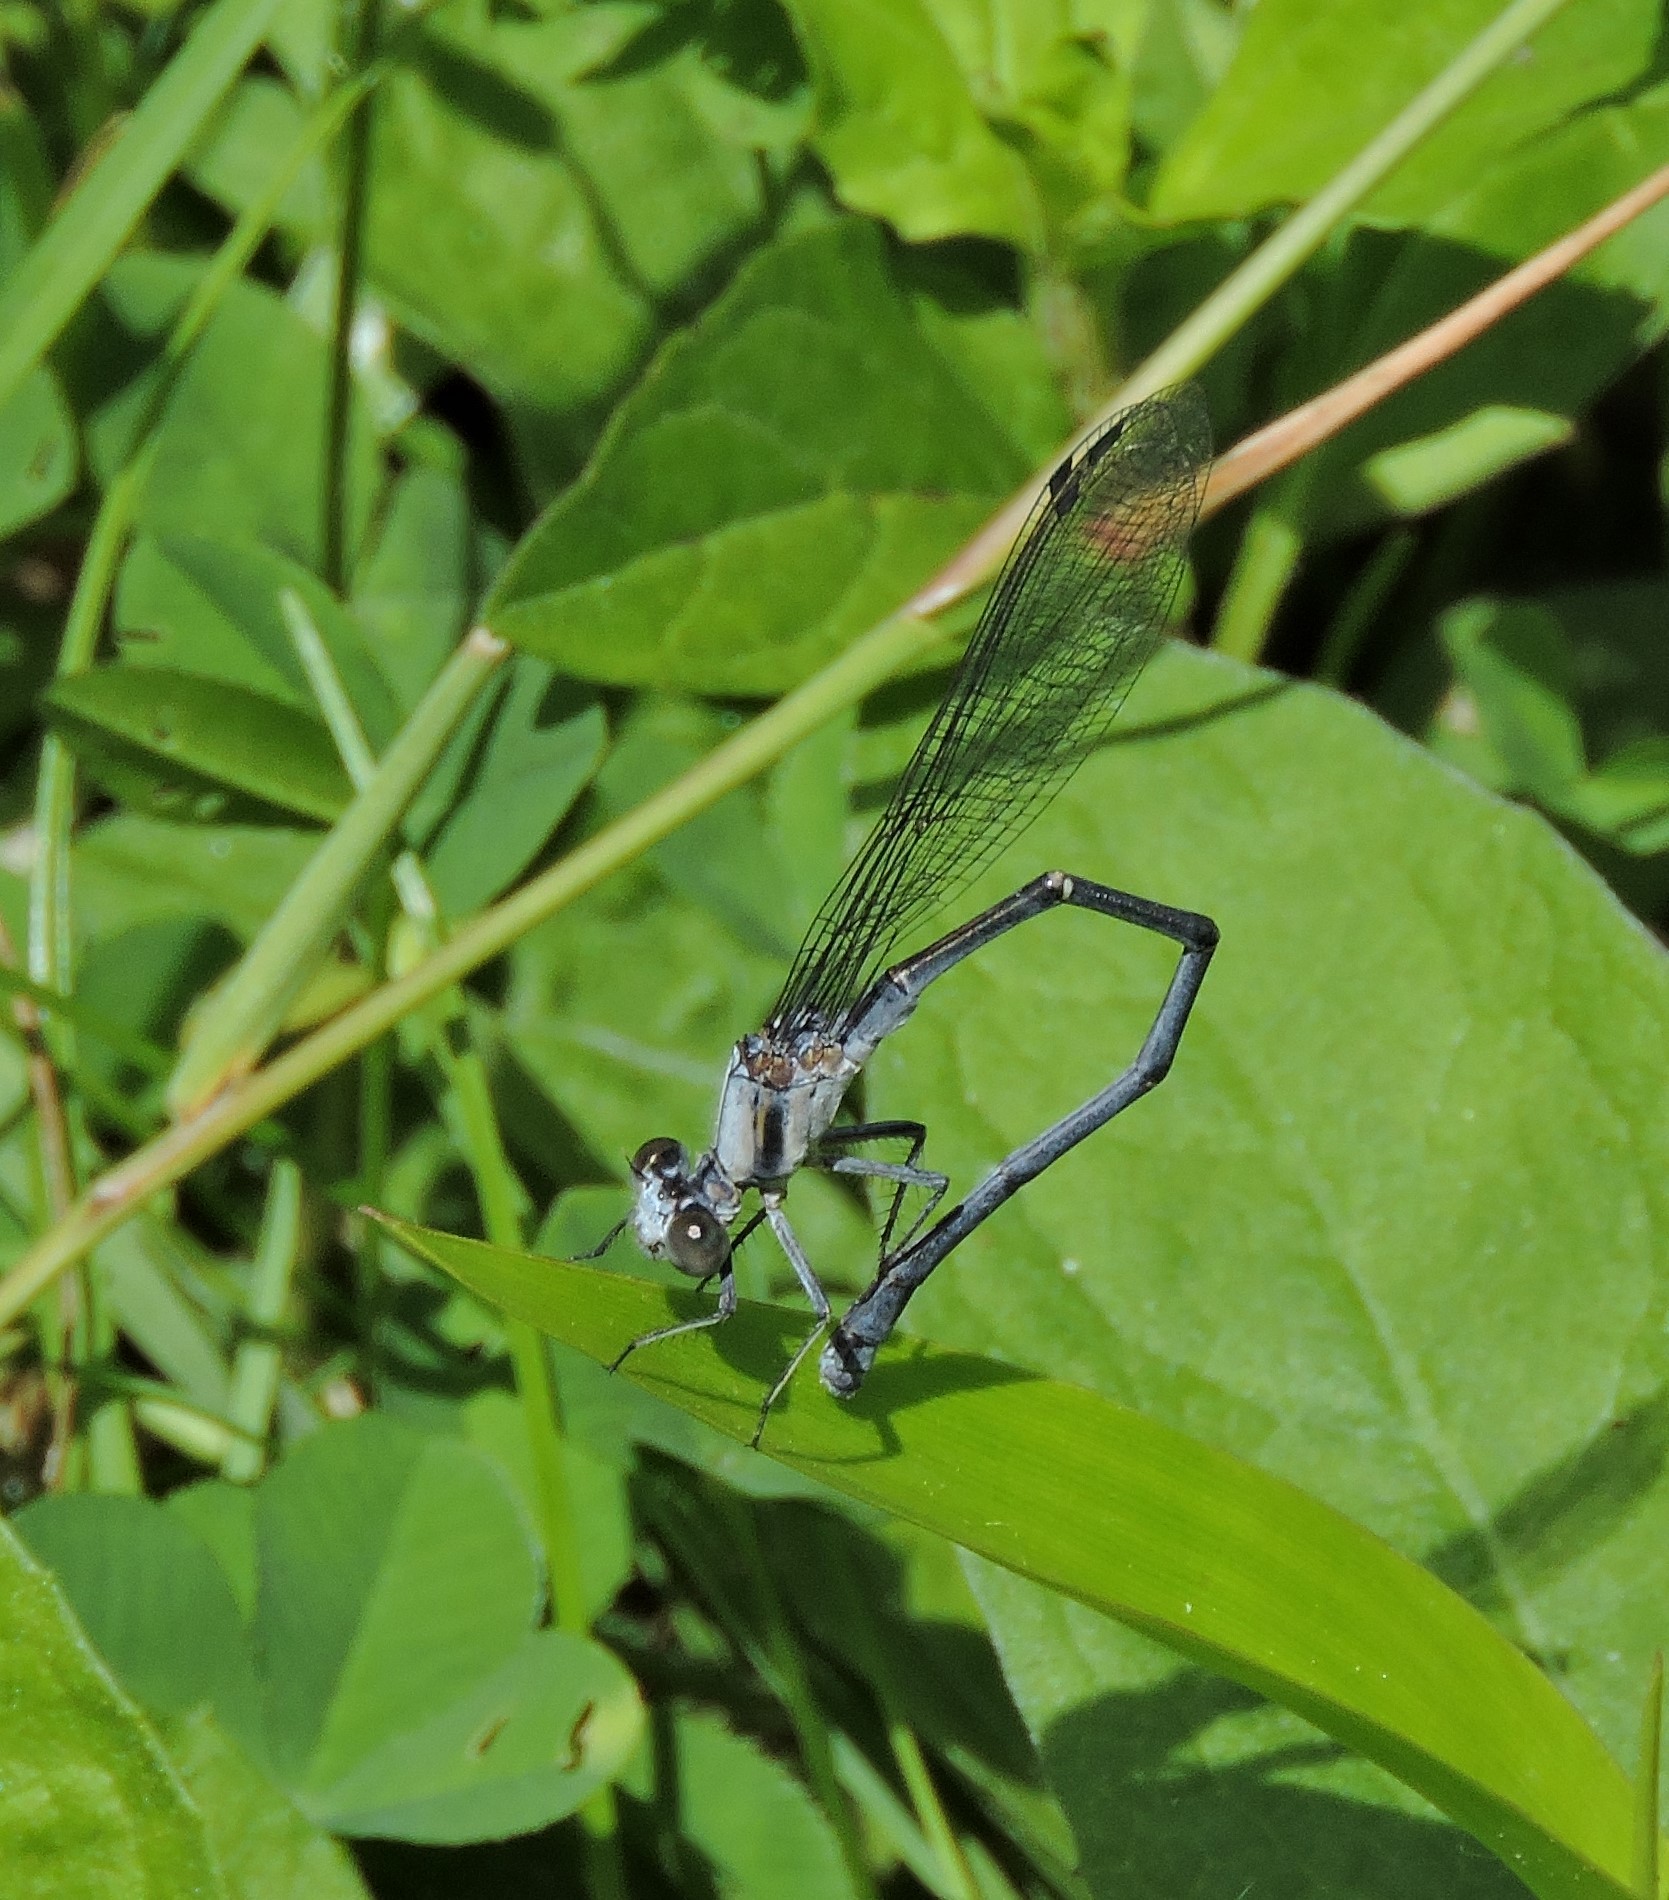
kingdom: Animalia
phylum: Arthropoda
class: Insecta
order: Odonata
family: Coenagrionidae
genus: Argia
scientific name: Argia moesta
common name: Powdered dancer
